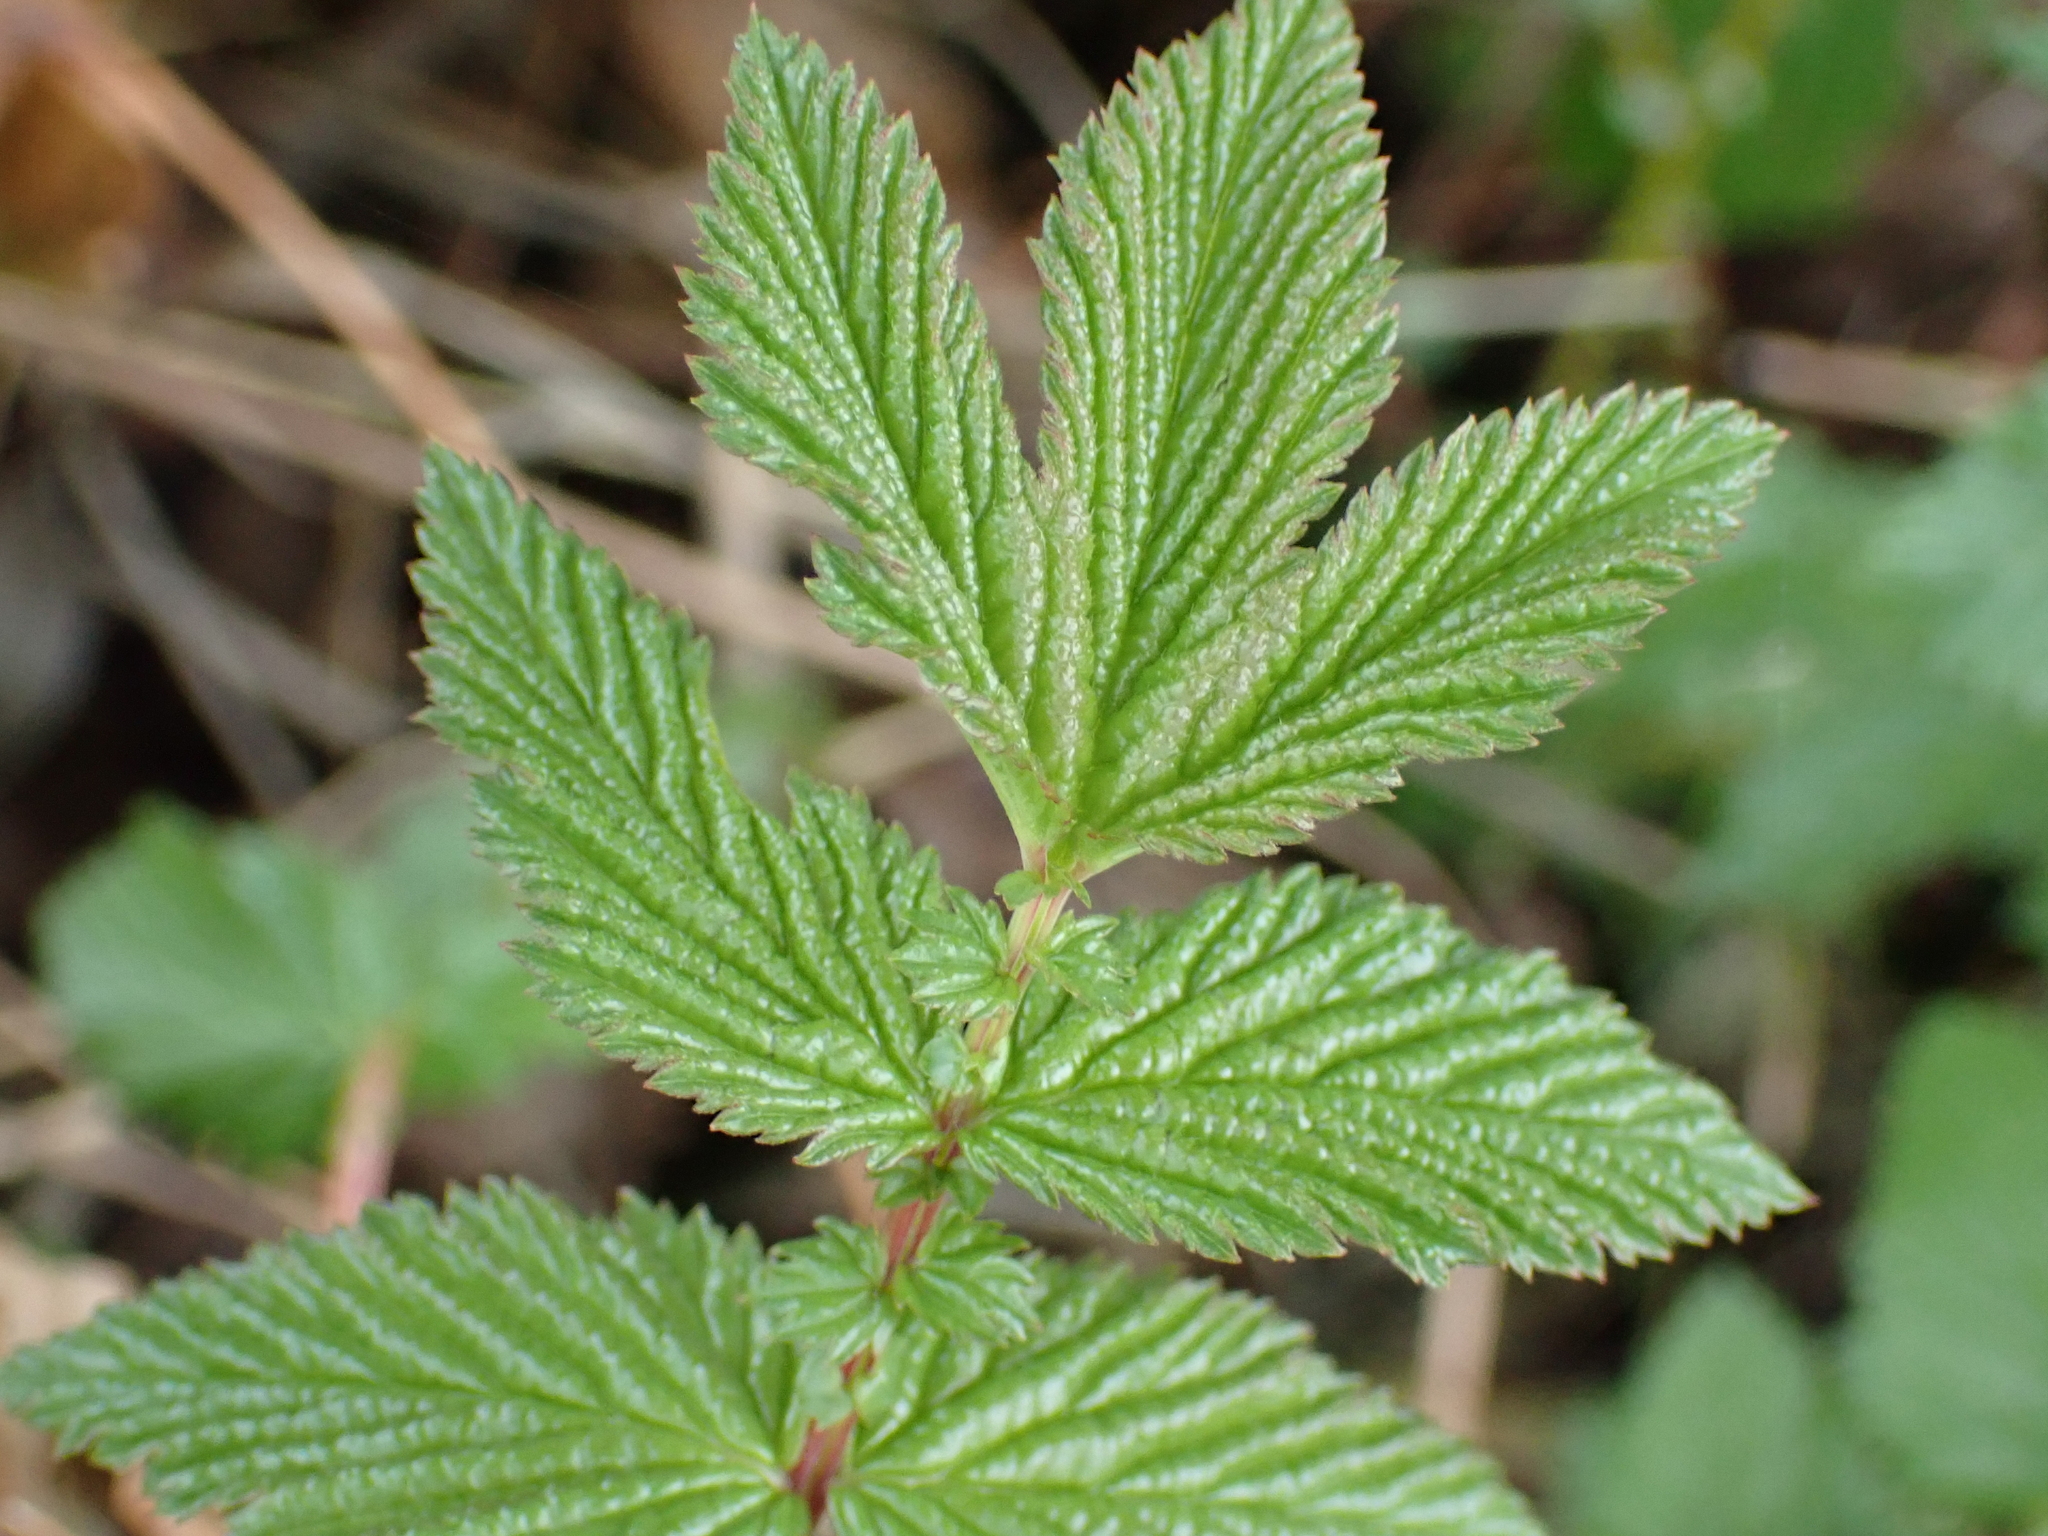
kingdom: Plantae
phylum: Tracheophyta
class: Magnoliopsida
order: Rosales
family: Rosaceae
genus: Filipendula
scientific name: Filipendula ulmaria
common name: Meadowsweet
